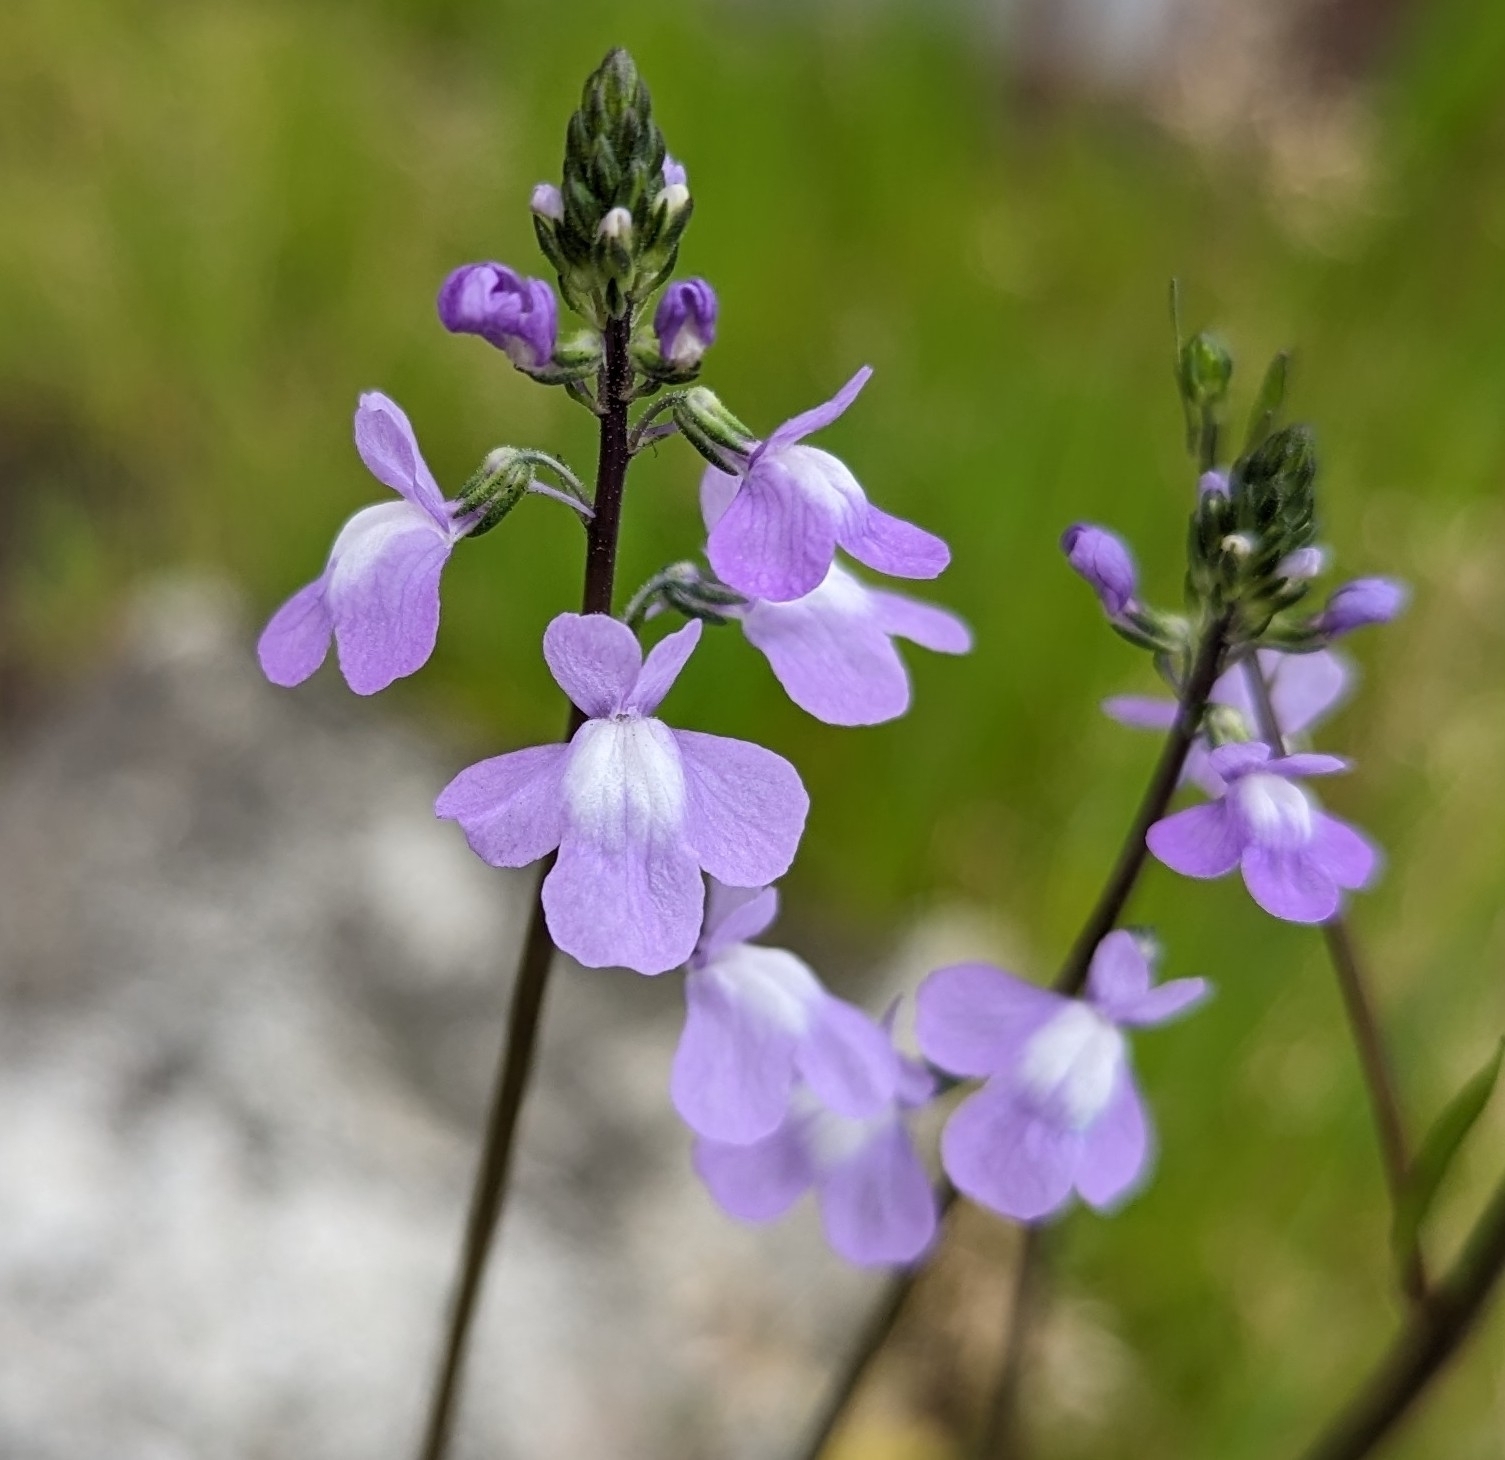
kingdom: Plantae
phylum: Tracheophyta
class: Magnoliopsida
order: Lamiales
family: Plantaginaceae
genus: Nuttallanthus
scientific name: Nuttallanthus canadensis
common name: Blue toadflax
